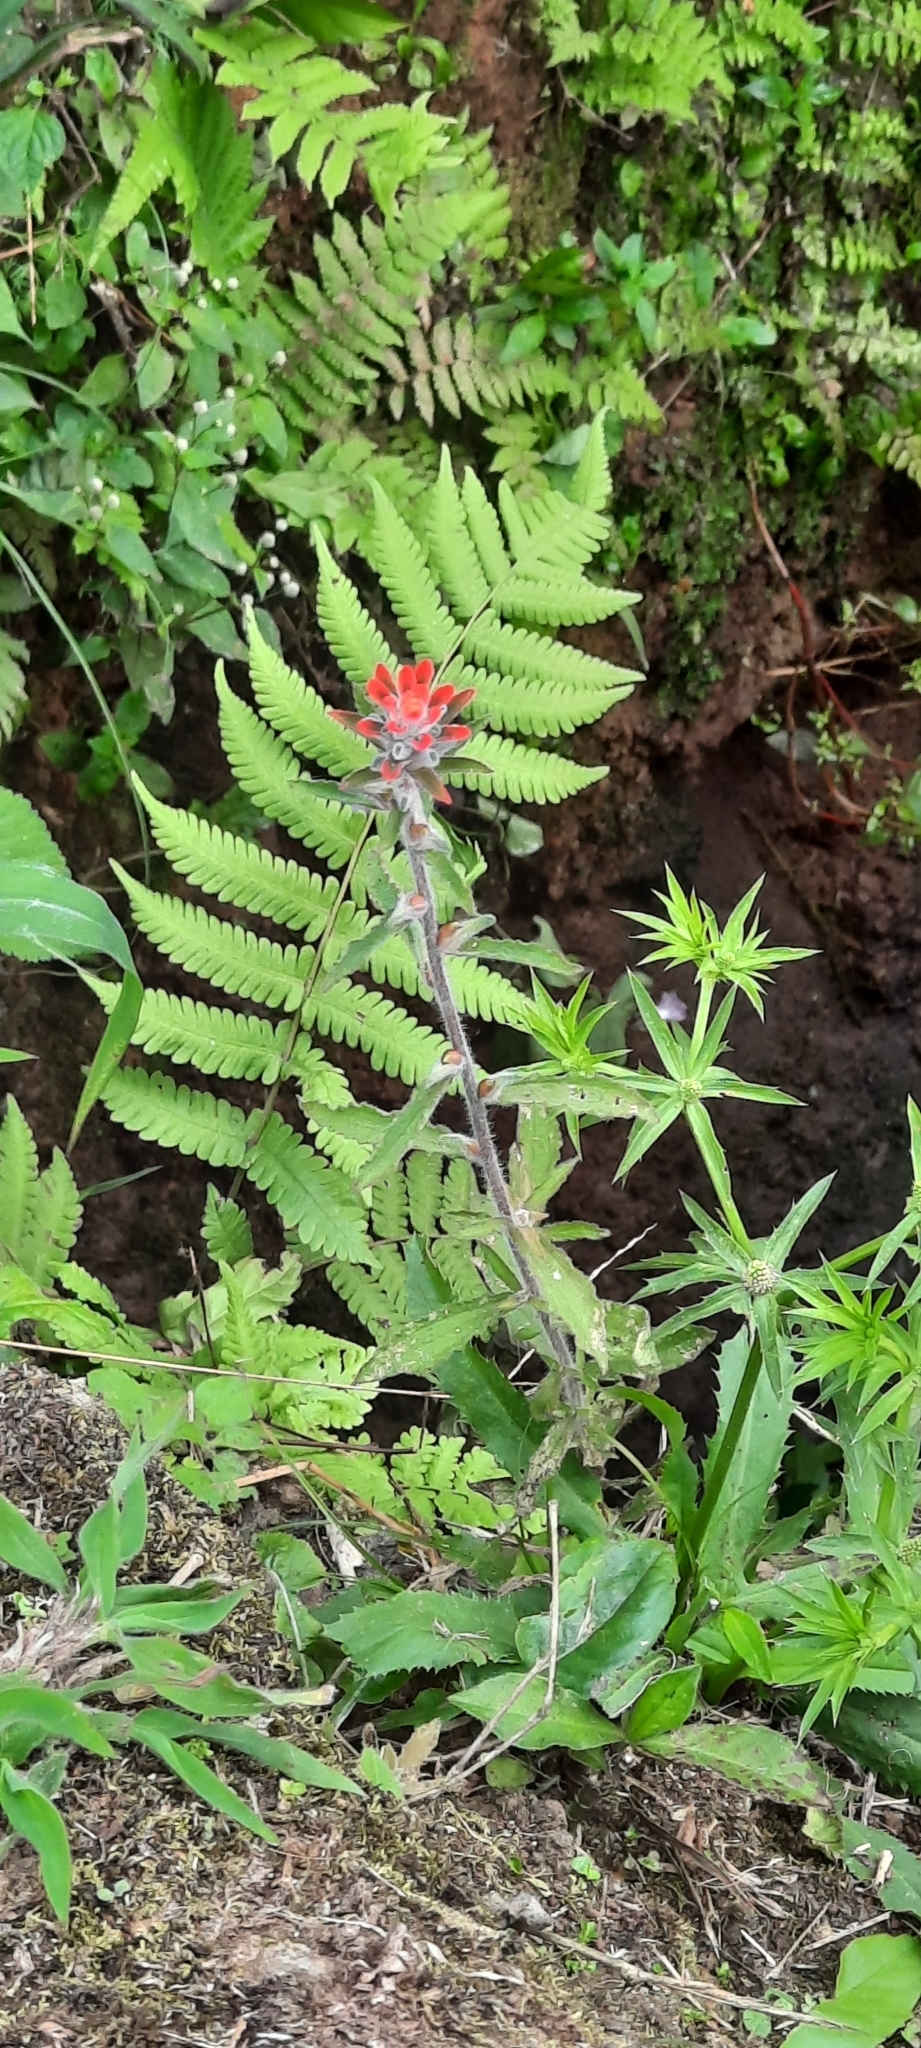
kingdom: Plantae
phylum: Tracheophyta
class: Magnoliopsida
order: Lamiales
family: Orobanchaceae
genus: Castilleja
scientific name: Castilleja arvensis
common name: Indian paintbrush
